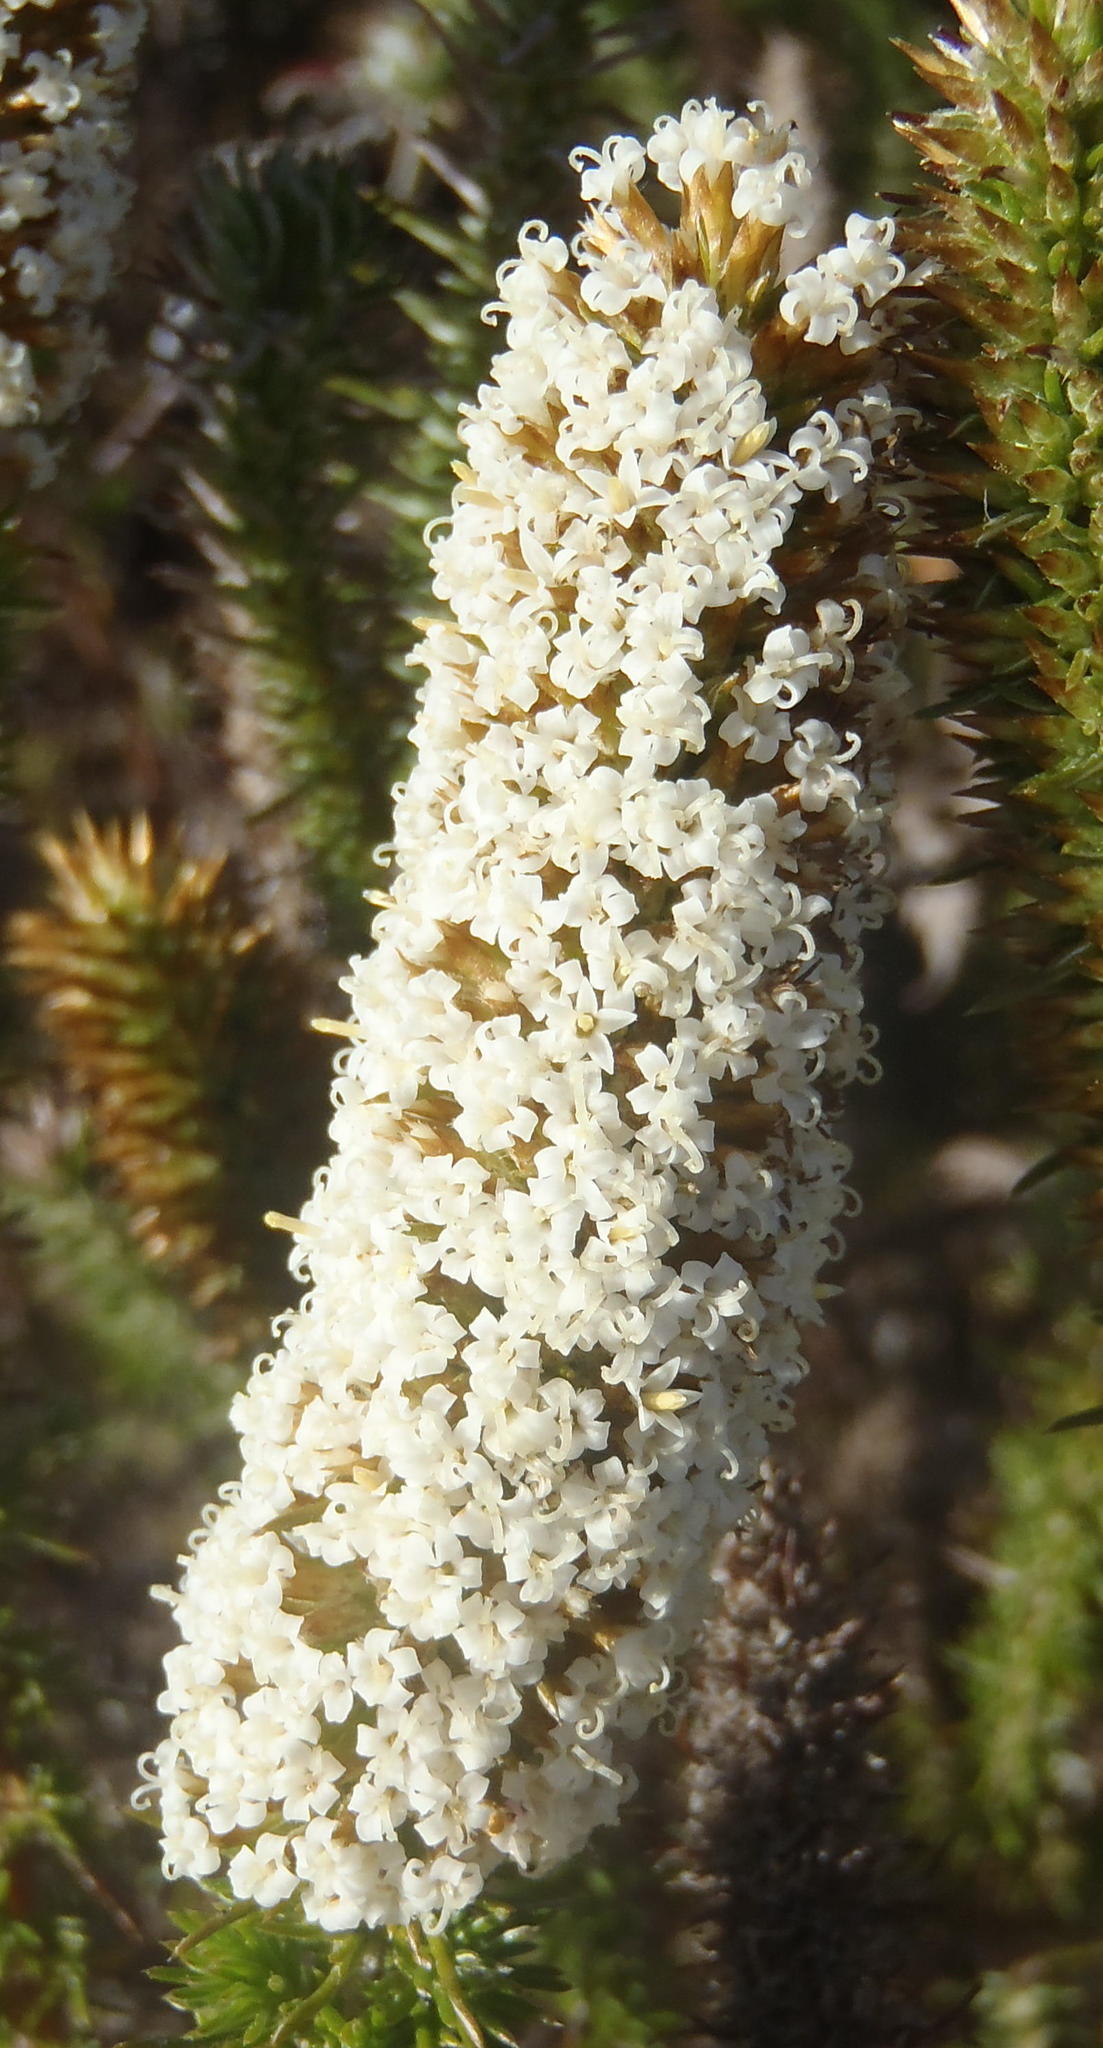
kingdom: Plantae
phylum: Tracheophyta
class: Magnoliopsida
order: Asterales
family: Asteraceae
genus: Stoebe
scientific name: Stoebe alopecuroides
